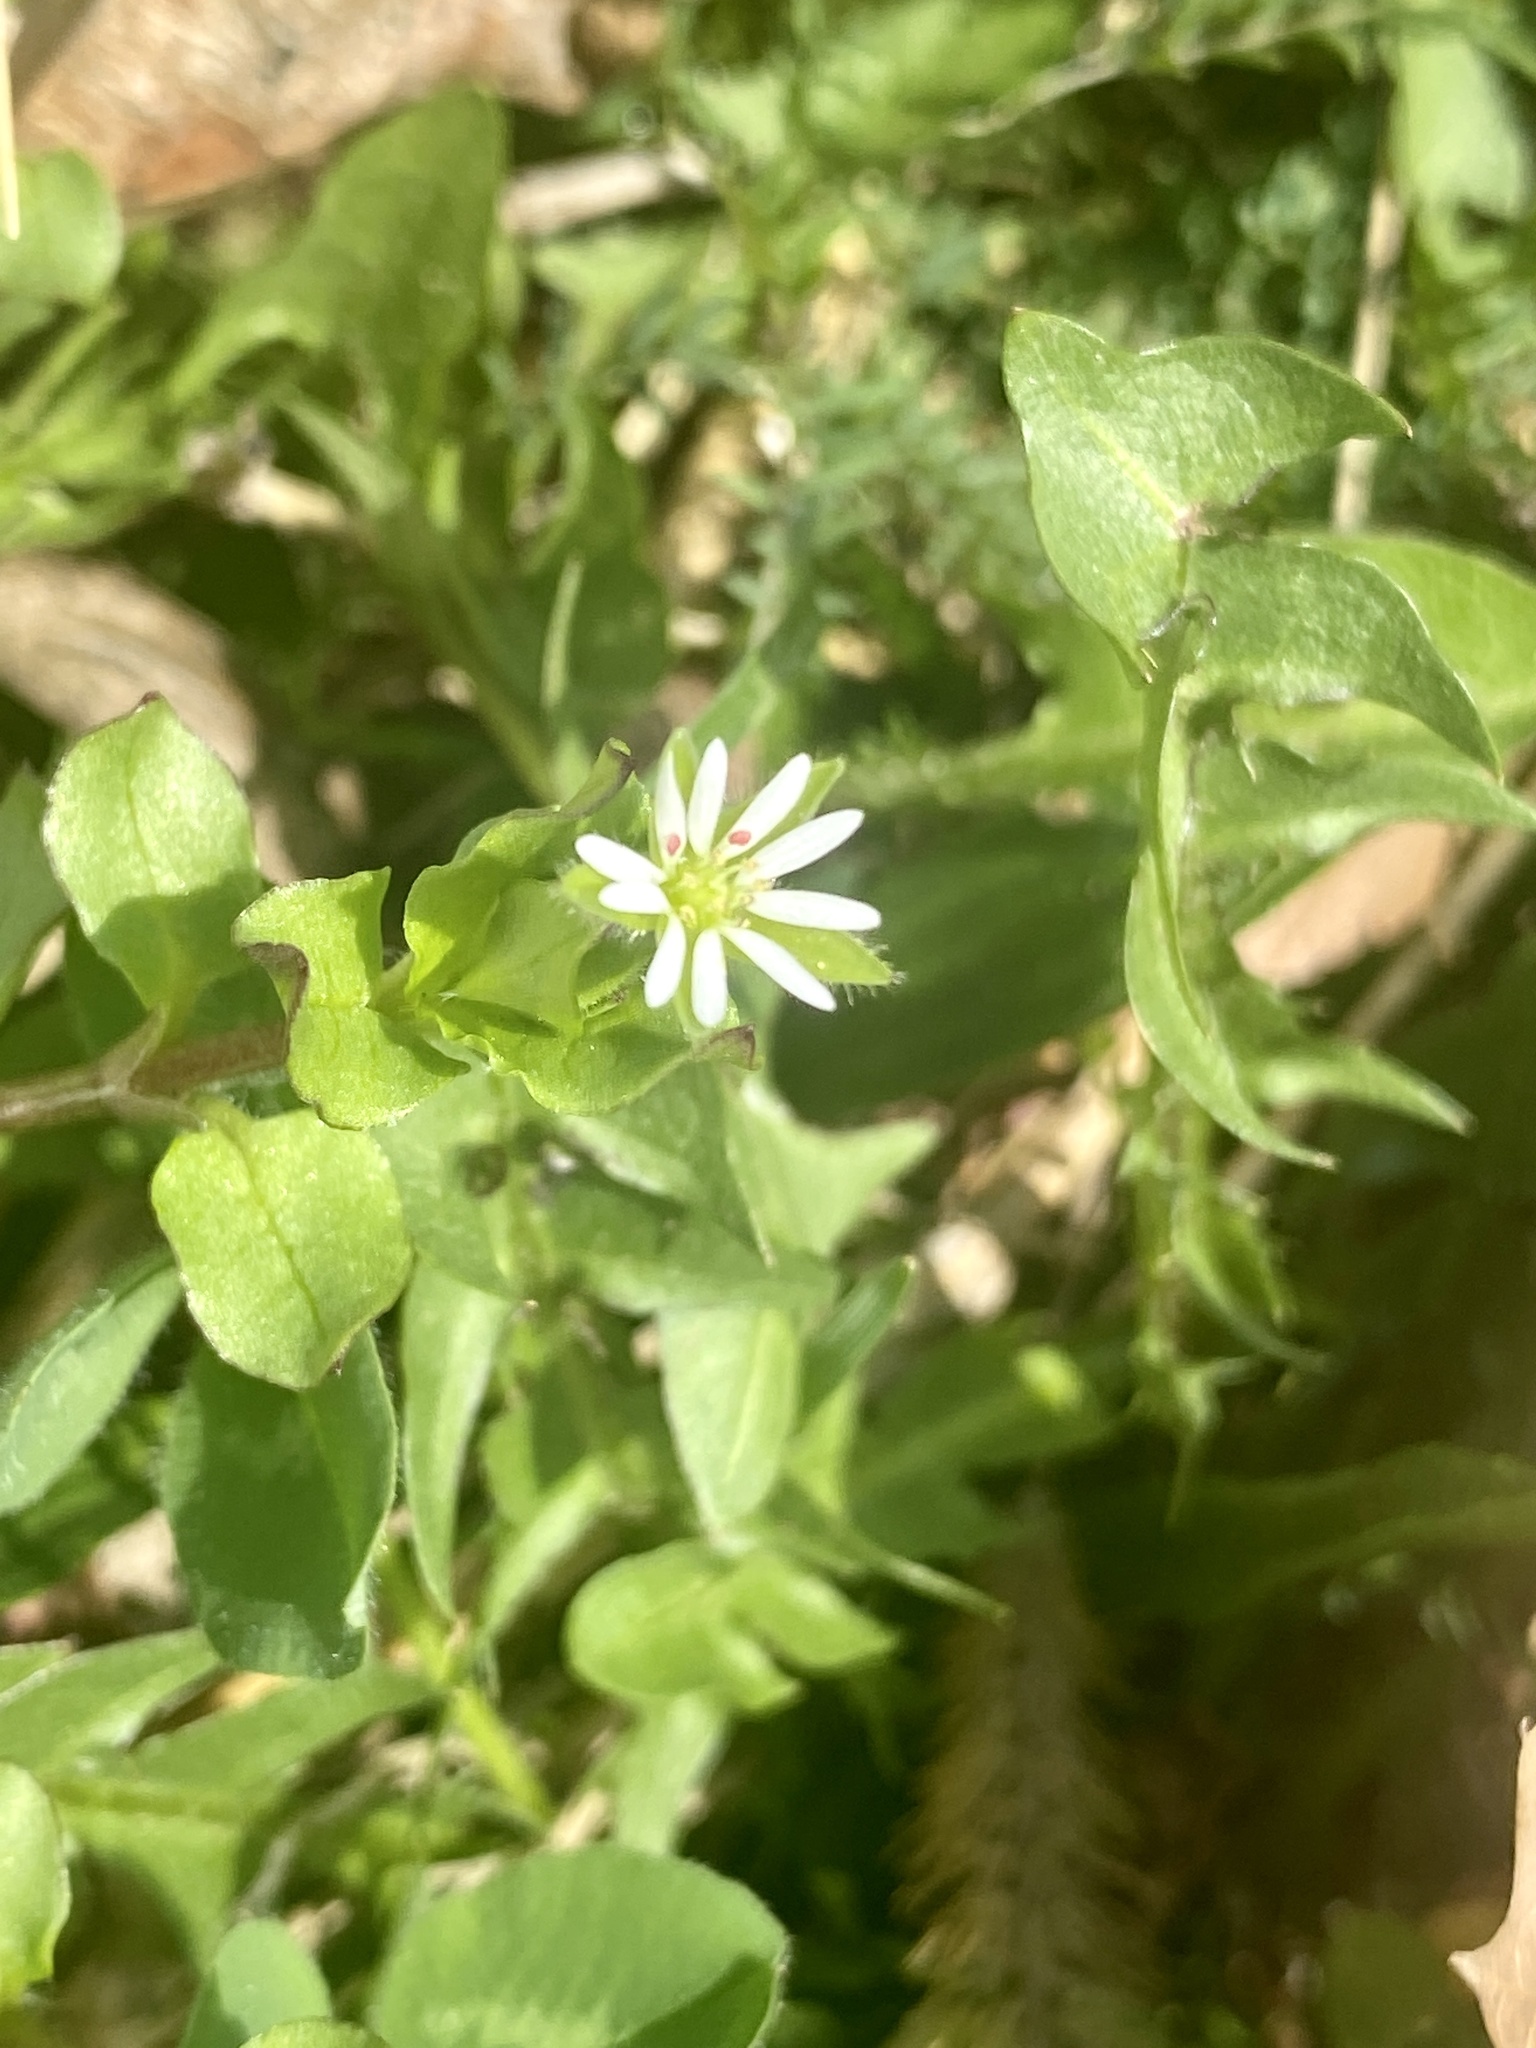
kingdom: Plantae
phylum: Tracheophyta
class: Magnoliopsida
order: Caryophyllales
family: Caryophyllaceae
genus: Stellaria
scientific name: Stellaria media
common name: Common chickweed
